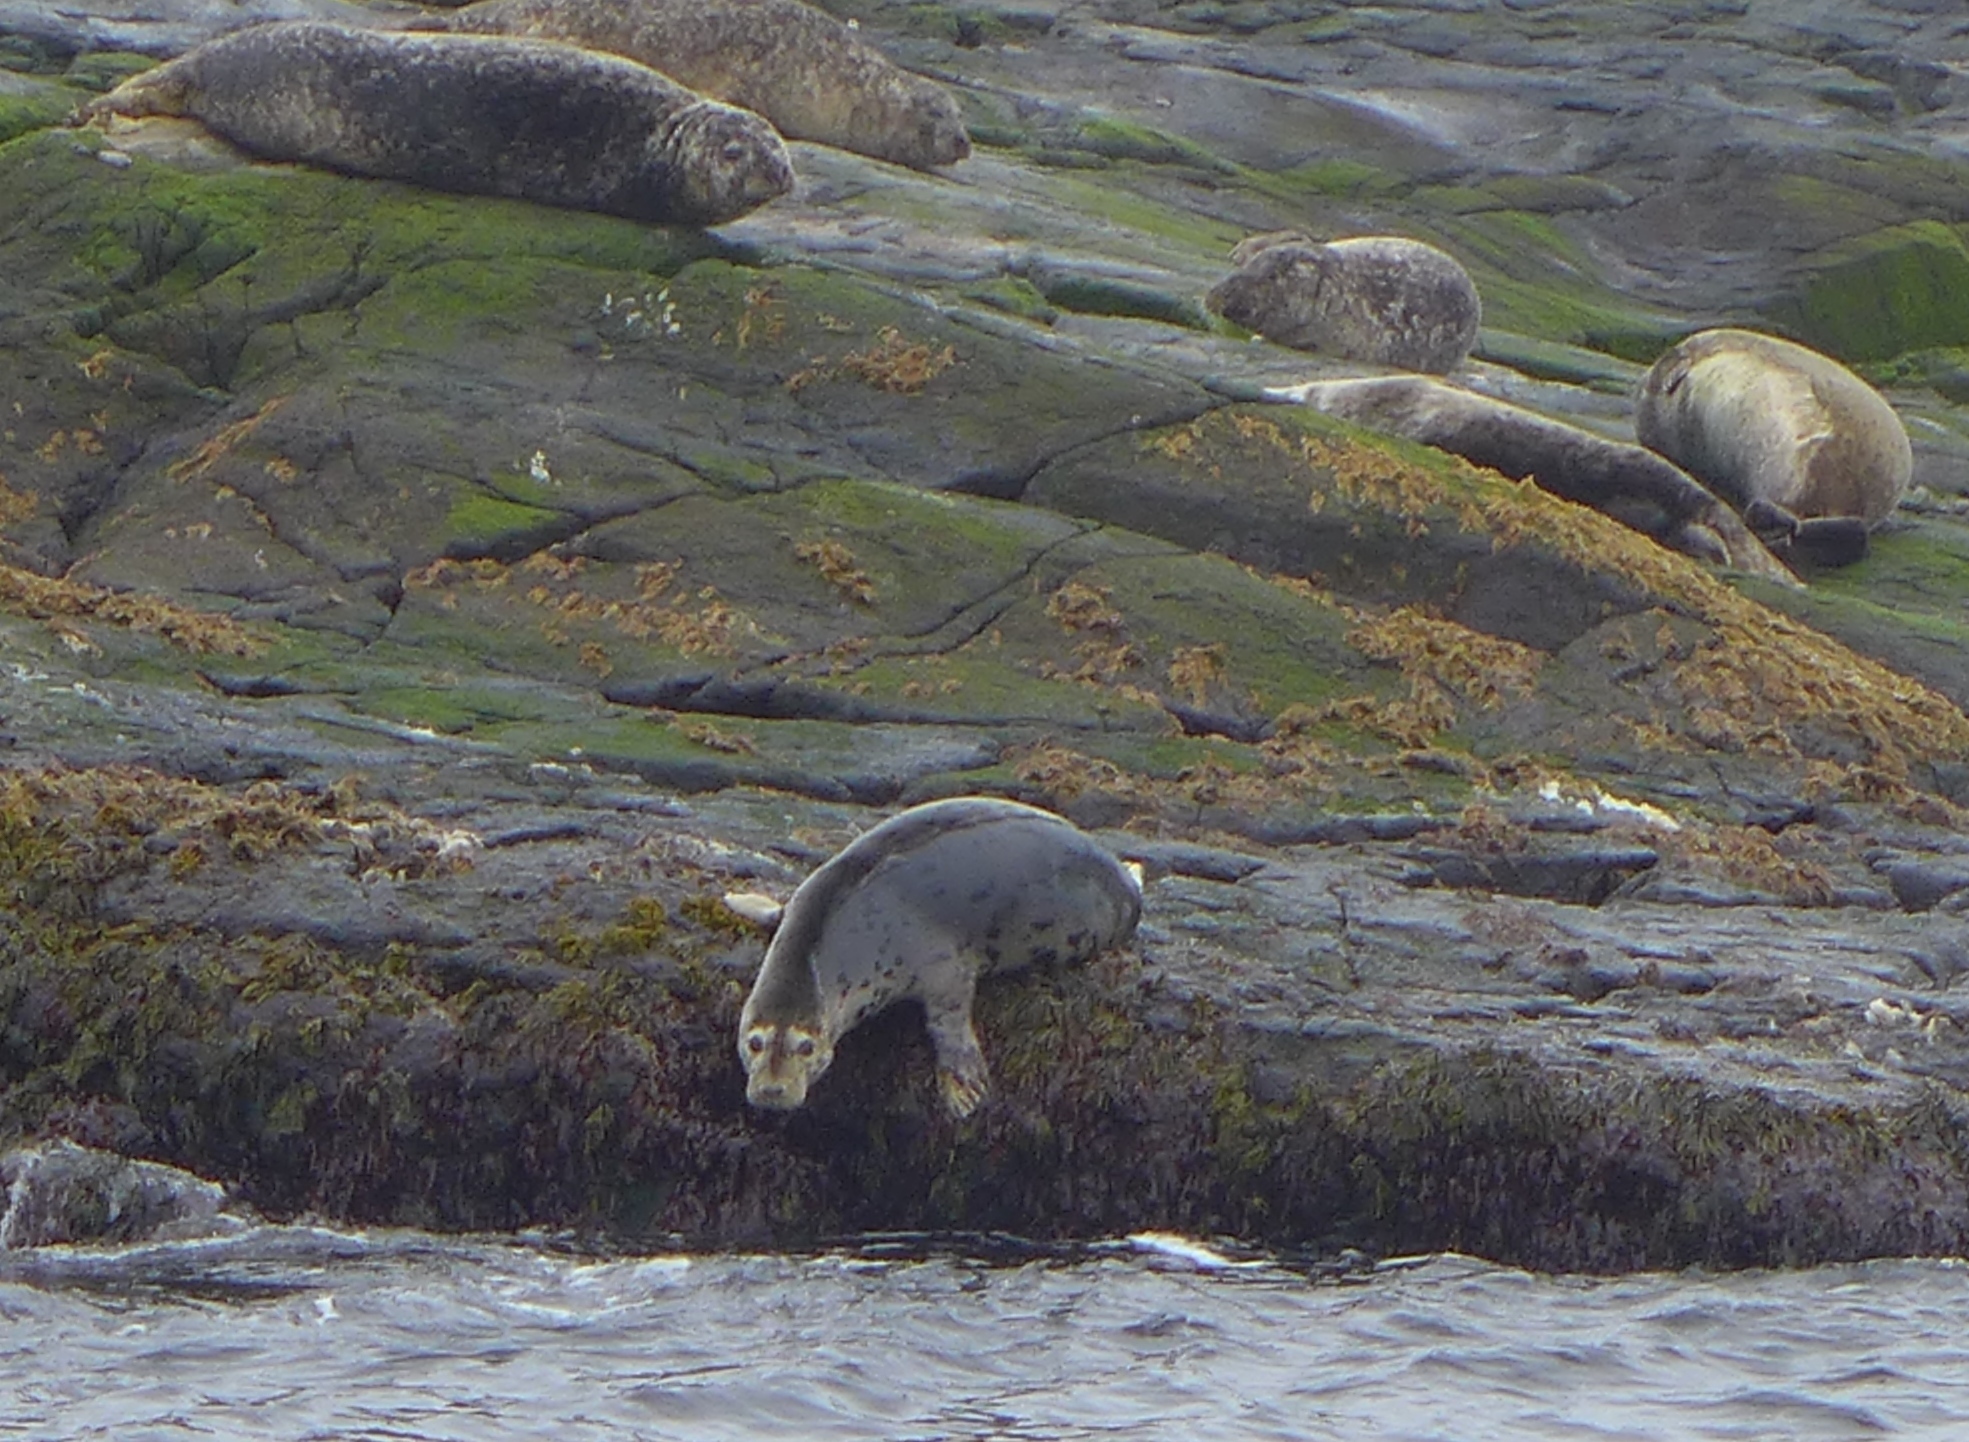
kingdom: Animalia
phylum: Chordata
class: Mammalia
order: Carnivora
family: Phocidae
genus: Phoca
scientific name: Phoca vitulina
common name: Harbor seal
